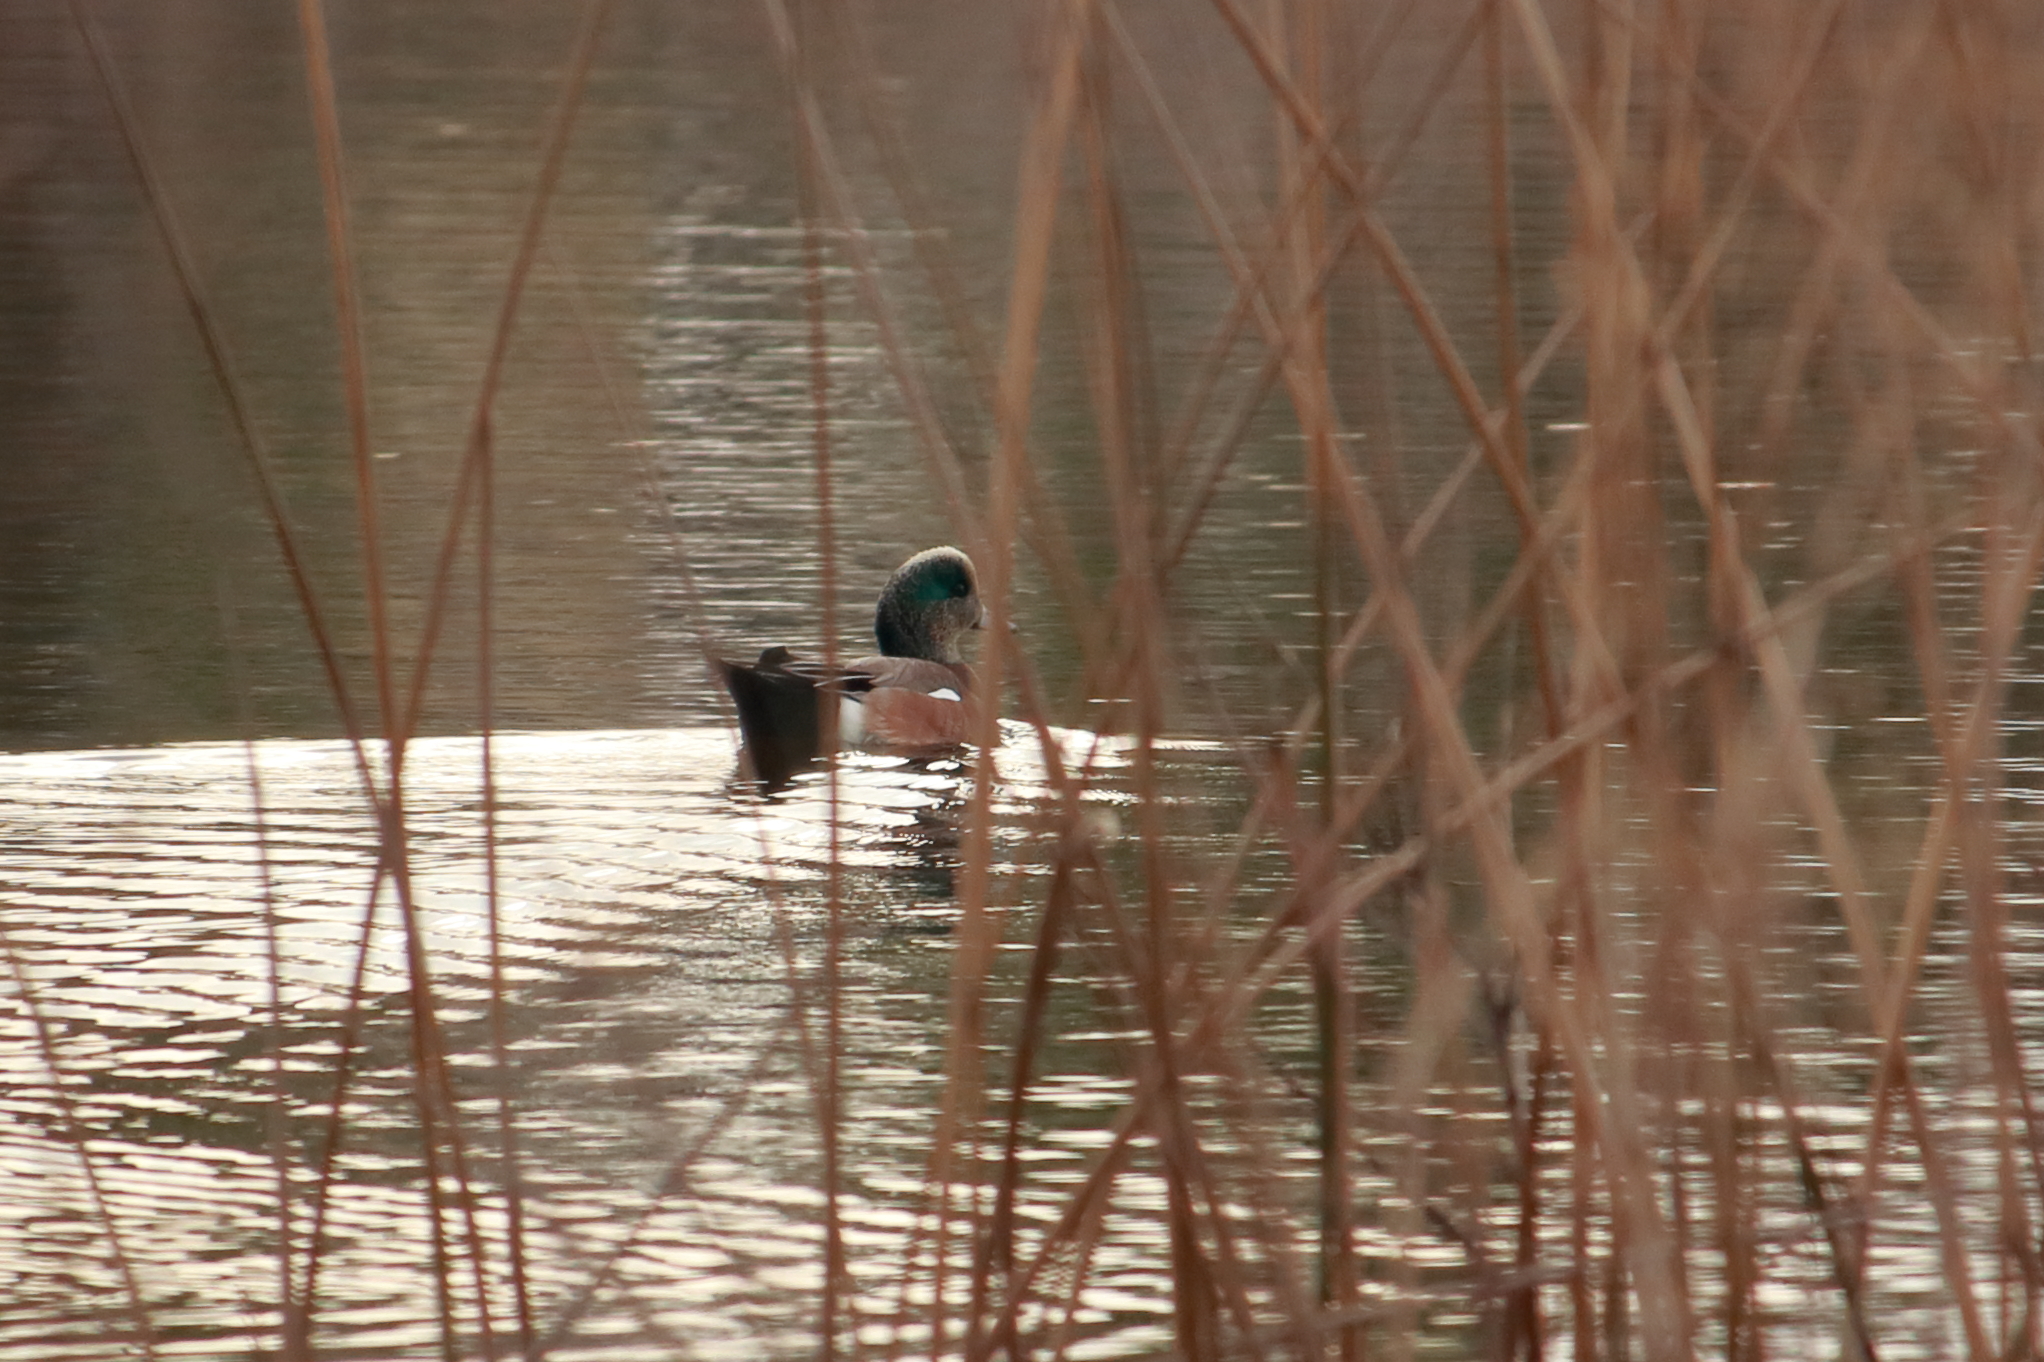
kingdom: Animalia
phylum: Chordata
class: Aves
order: Anseriformes
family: Anatidae
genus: Mareca
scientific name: Mareca americana
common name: American wigeon
